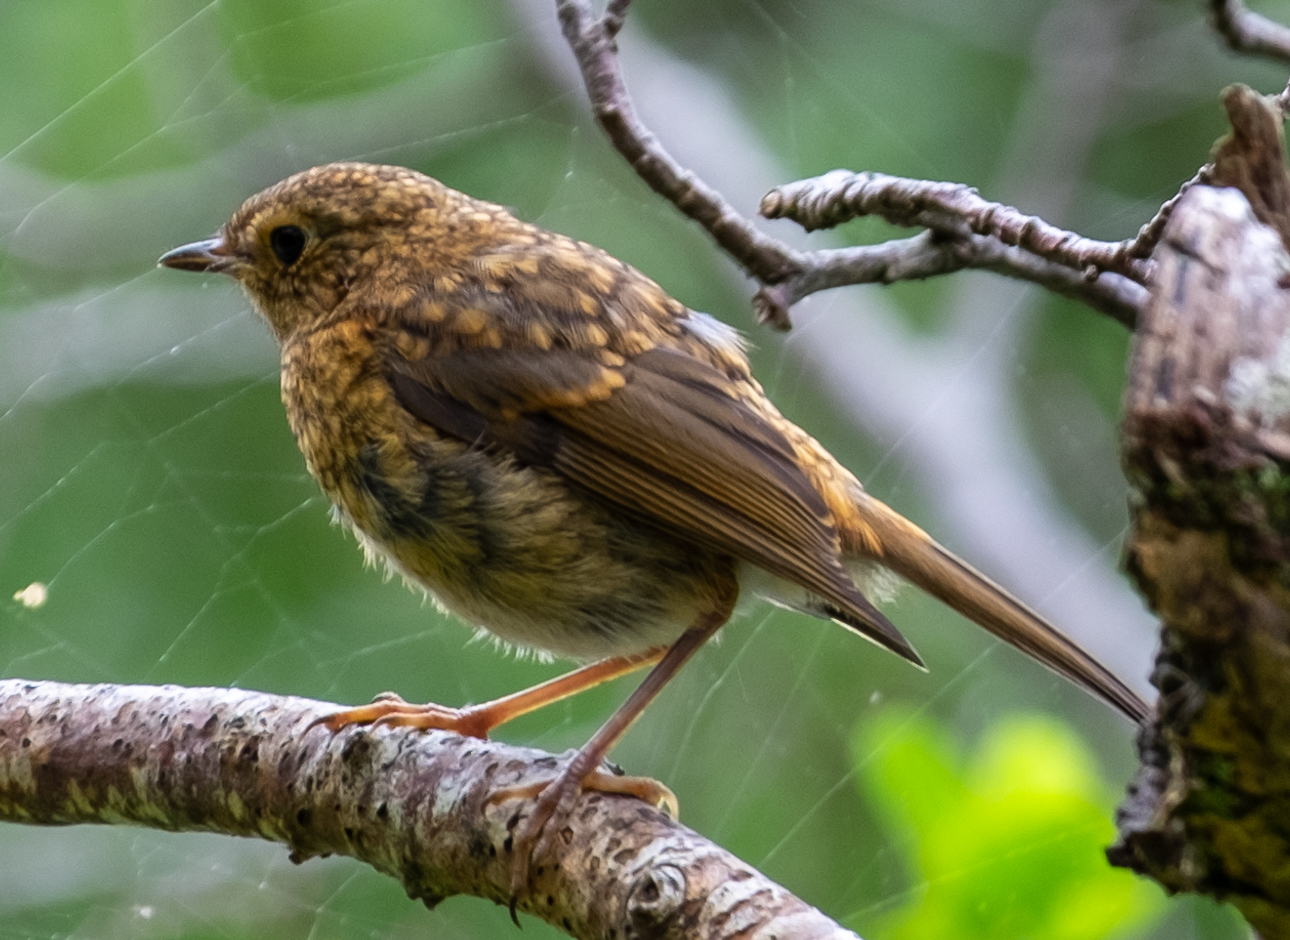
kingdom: Animalia
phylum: Chordata
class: Aves
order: Passeriformes
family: Muscicapidae
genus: Erithacus
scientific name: Erithacus rubecula
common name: European robin
